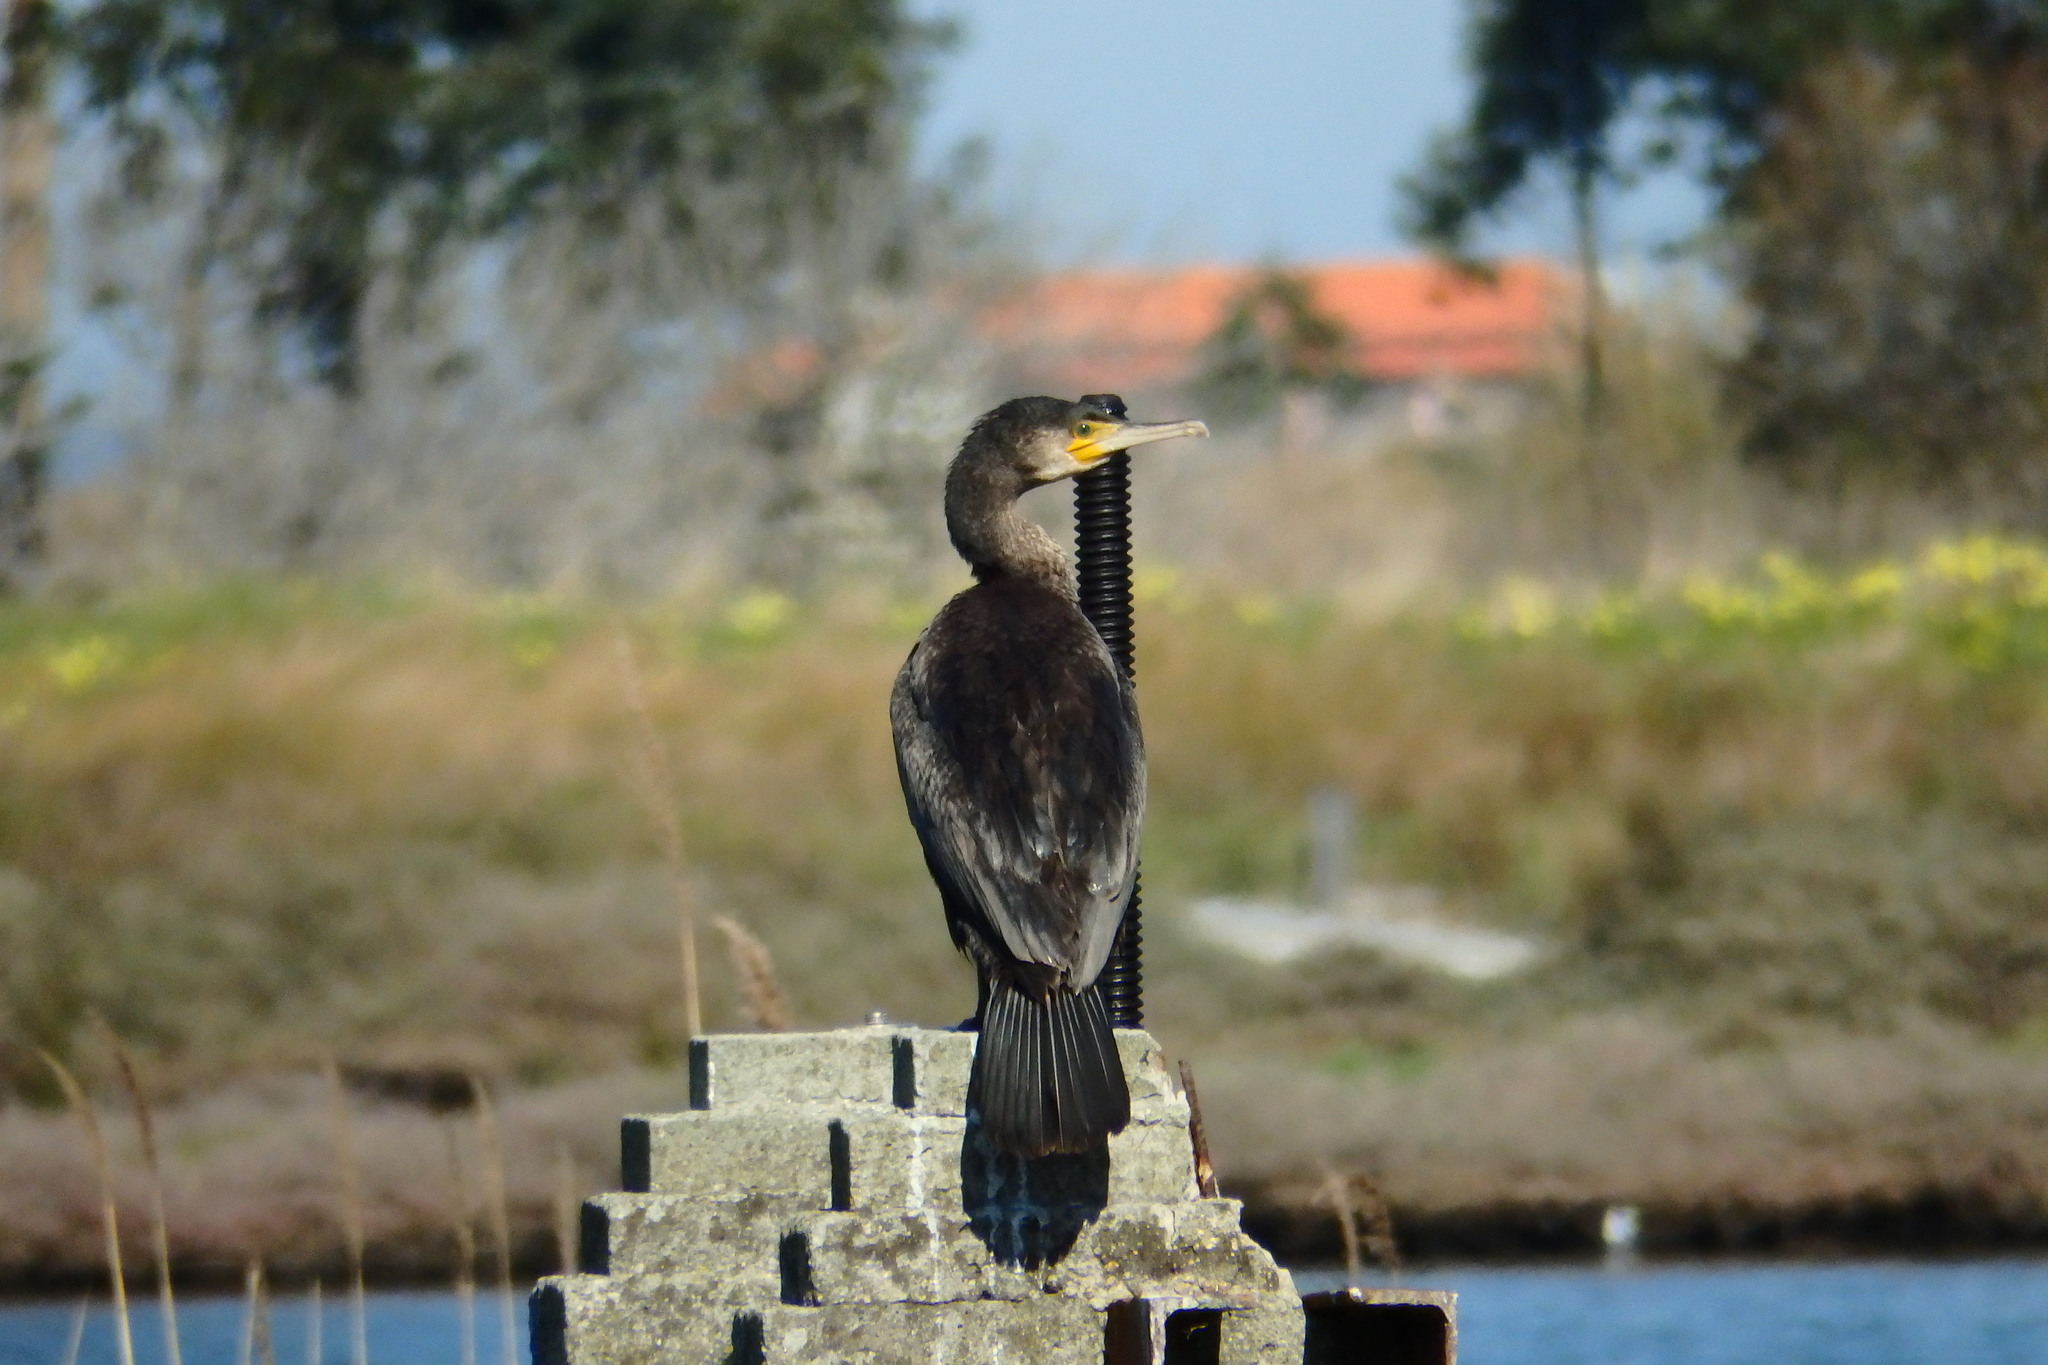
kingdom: Animalia
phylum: Chordata
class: Aves
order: Suliformes
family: Phalacrocoracidae
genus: Phalacrocorax
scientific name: Phalacrocorax carbo
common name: Great cormorant
